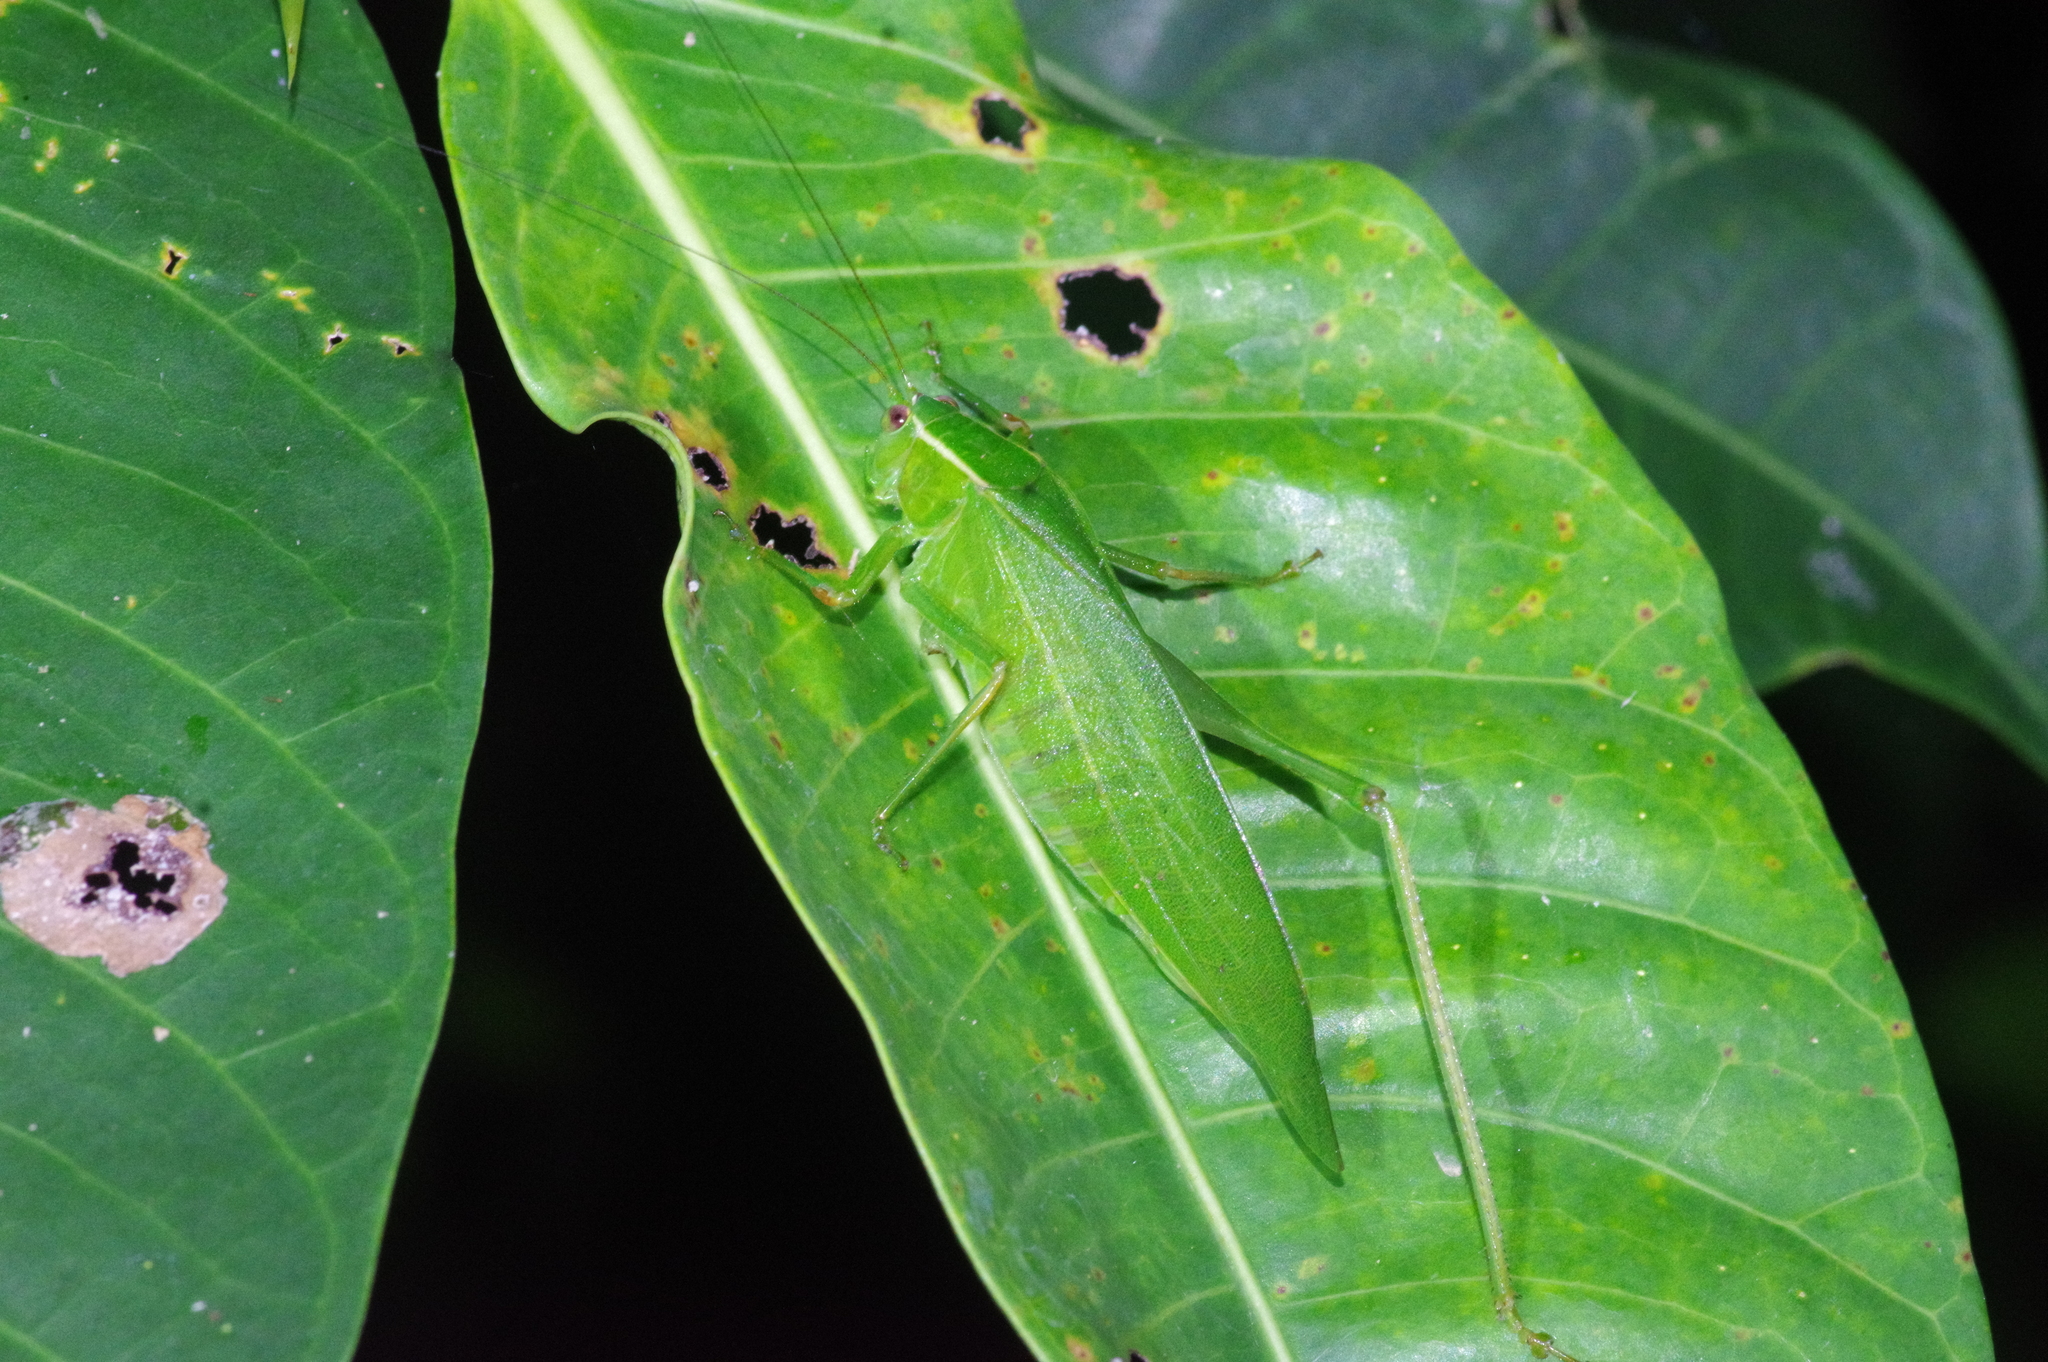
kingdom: Animalia
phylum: Arthropoda
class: Insecta
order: Orthoptera
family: Tettigoniidae
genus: Isopsera
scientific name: Isopsera denticulata
